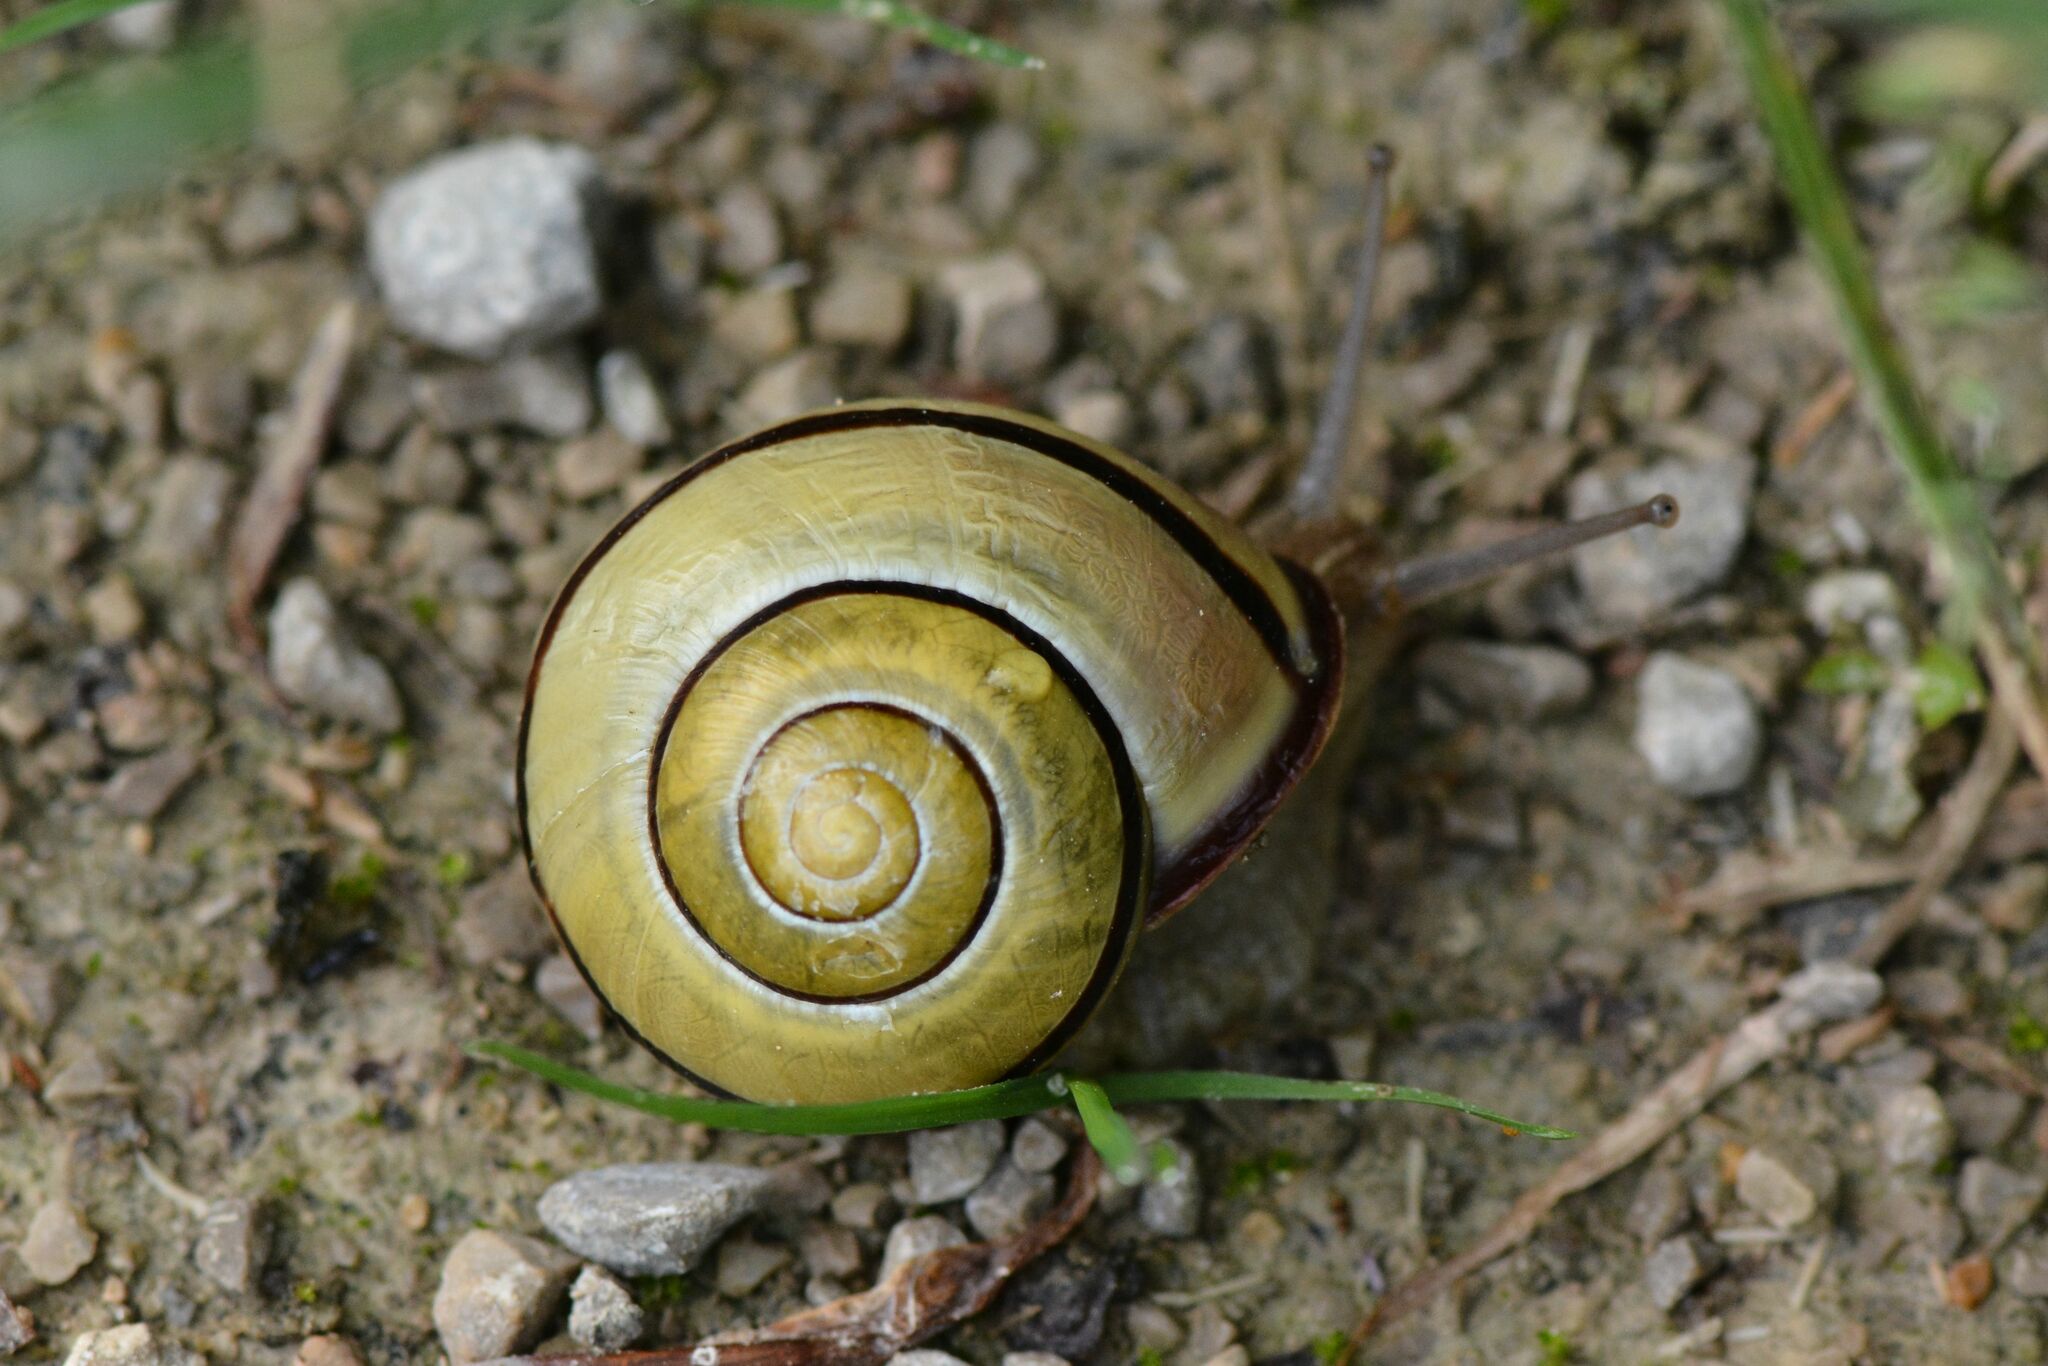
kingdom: Animalia
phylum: Mollusca
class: Gastropoda
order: Stylommatophora
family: Helicidae
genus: Cepaea
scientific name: Cepaea nemoralis
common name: Grovesnail
